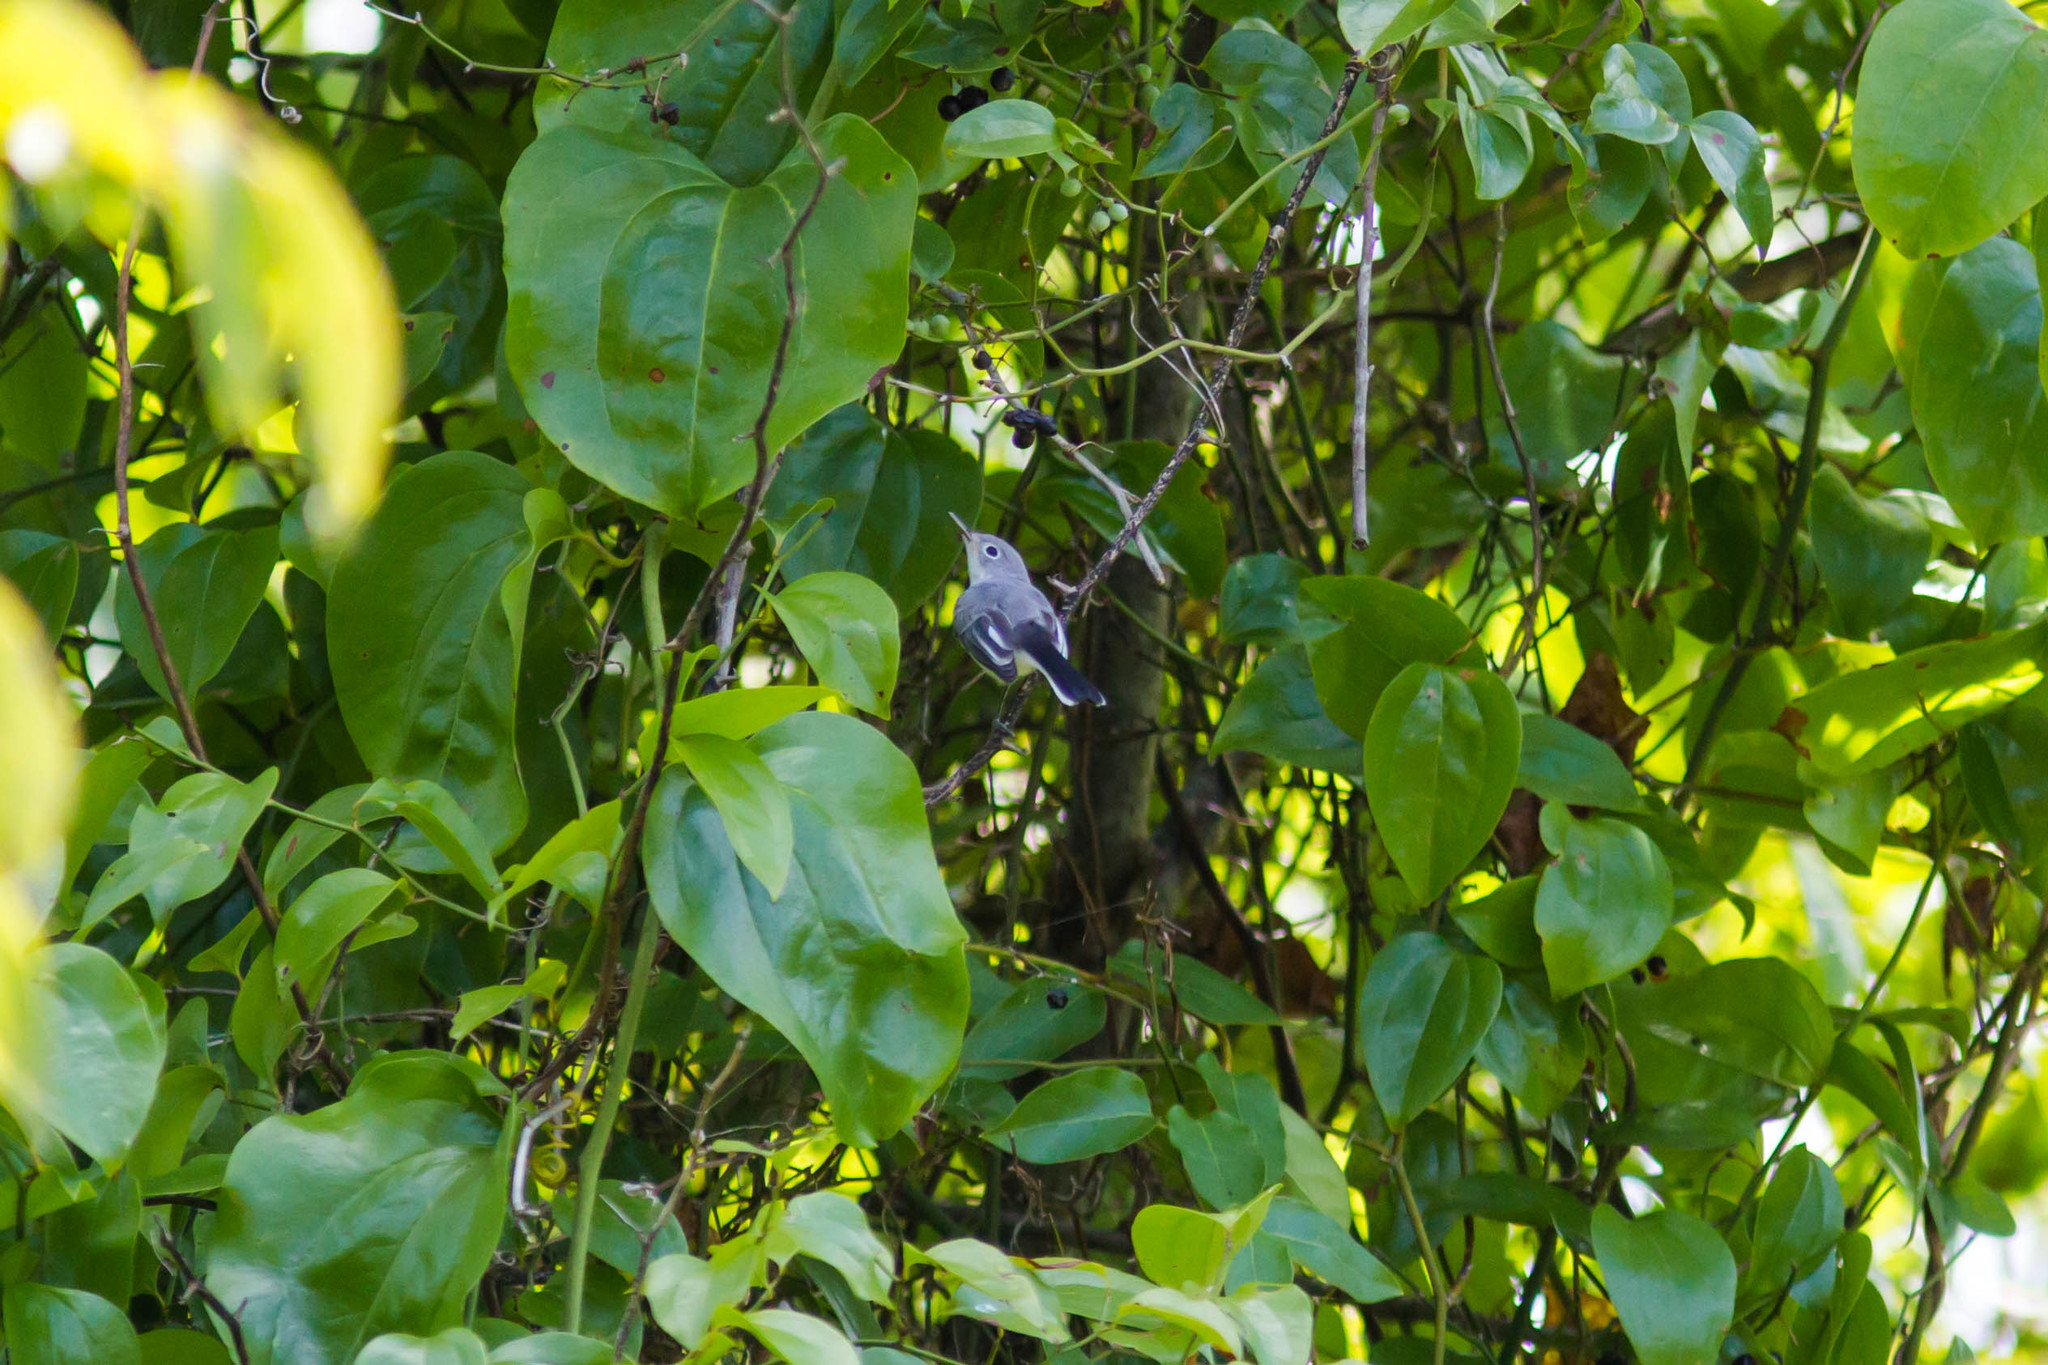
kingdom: Animalia
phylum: Chordata
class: Aves
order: Passeriformes
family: Polioptilidae
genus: Polioptila
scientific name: Polioptila caerulea
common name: Blue-gray gnatcatcher
